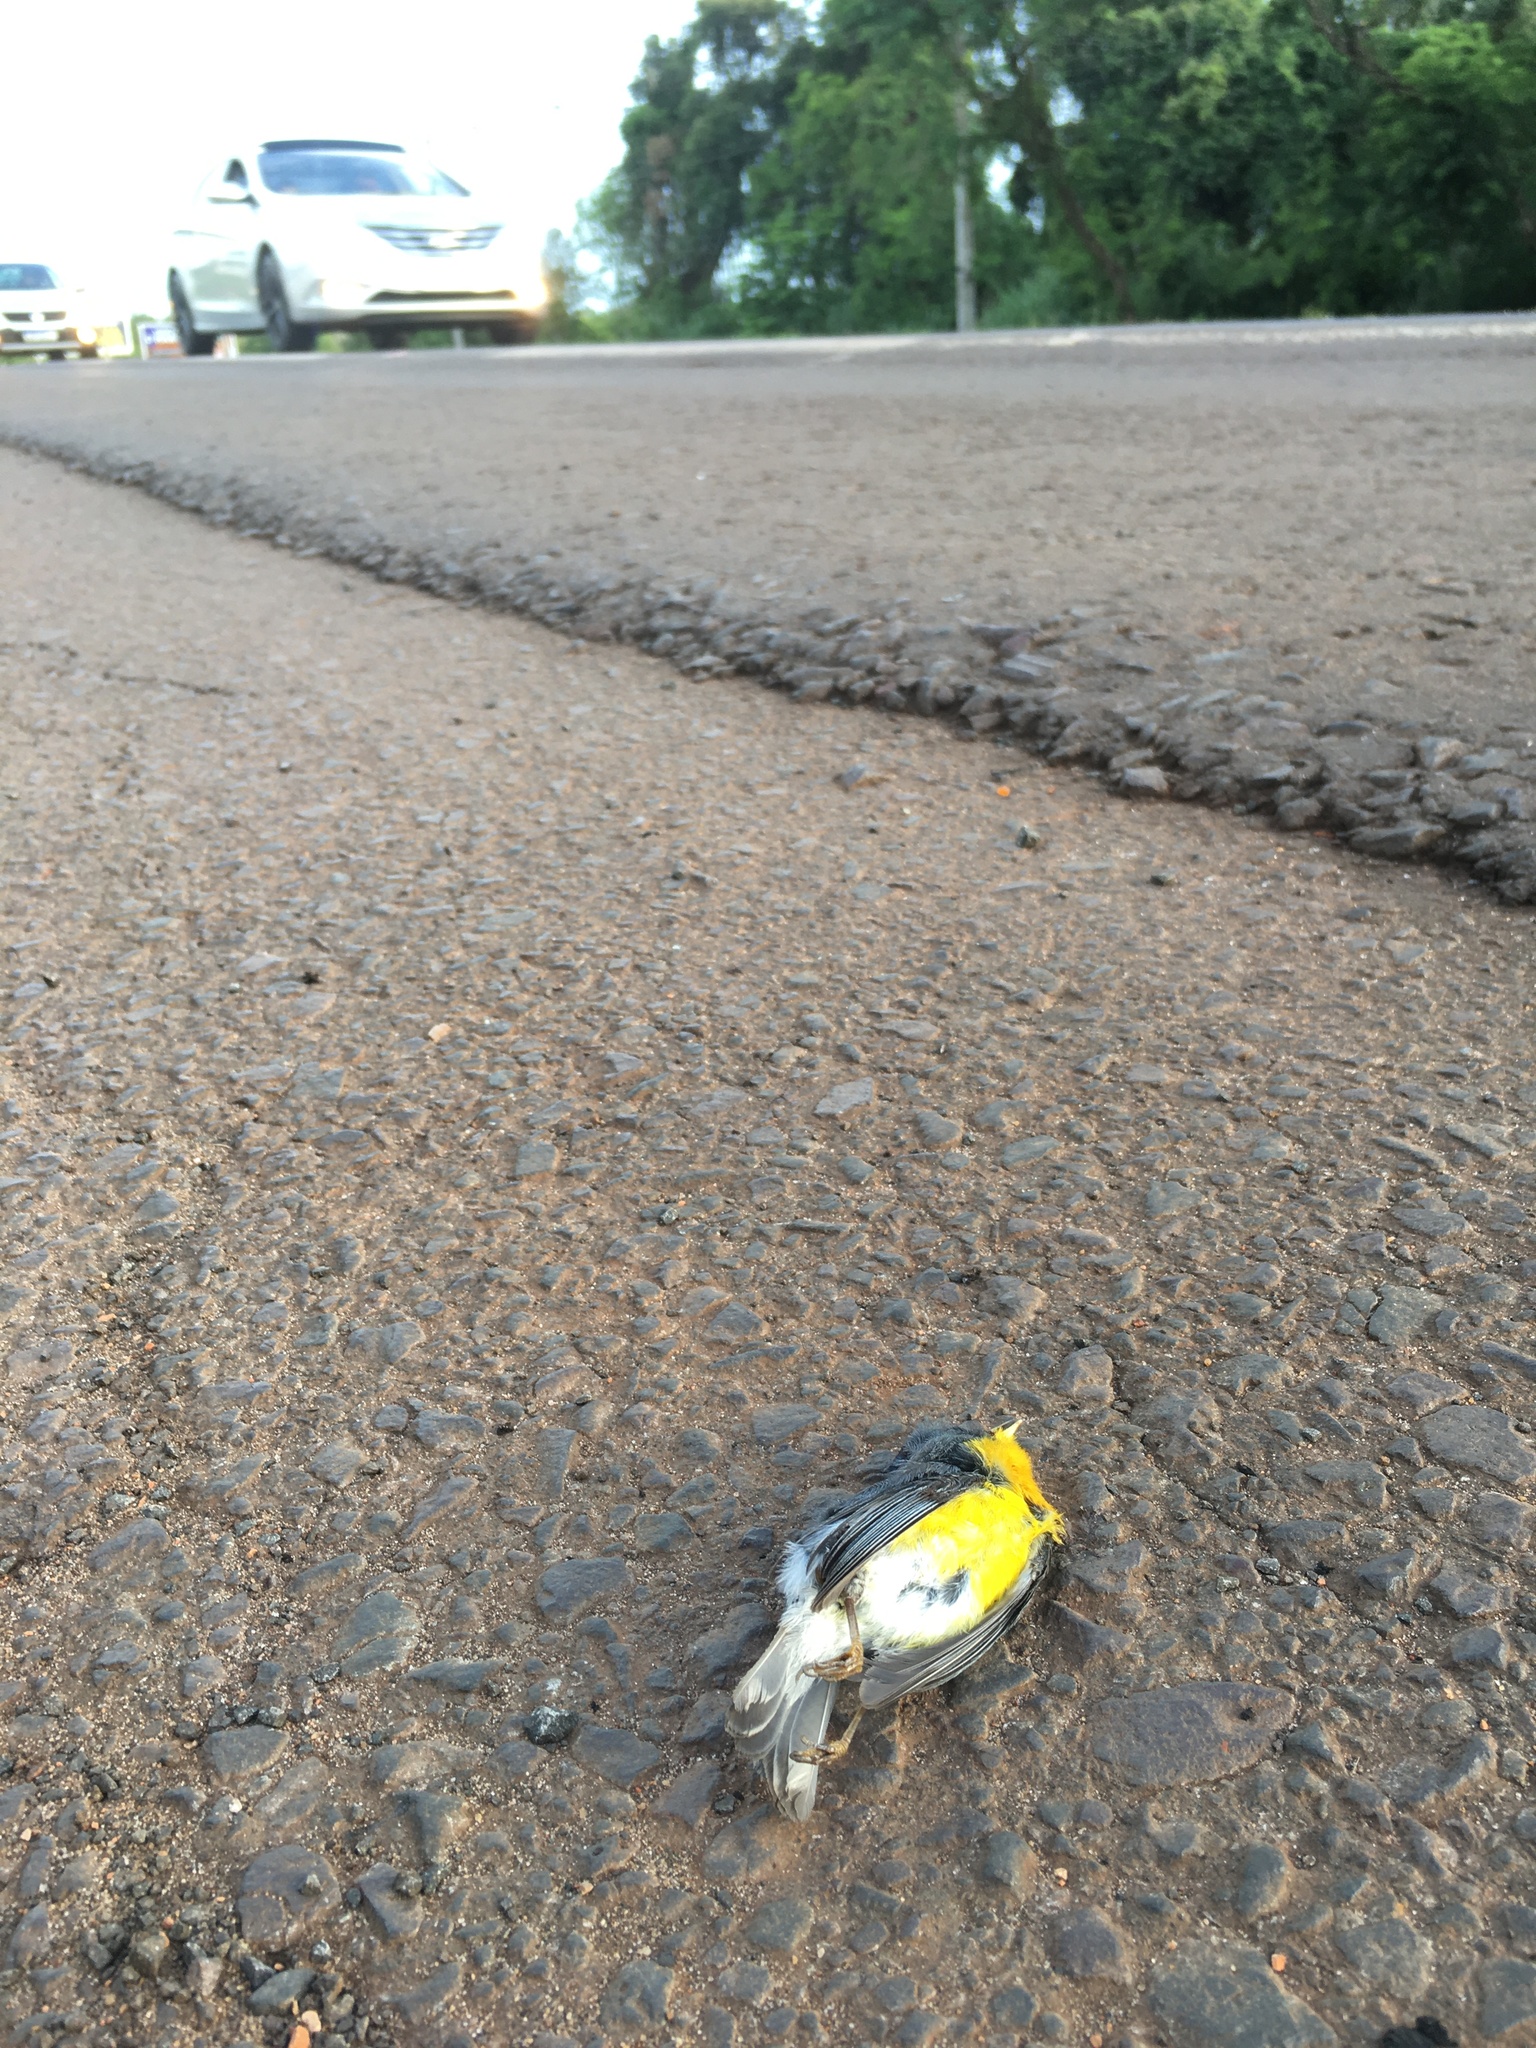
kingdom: Animalia
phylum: Chordata
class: Aves
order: Passeriformes
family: Parulidae
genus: Setophaga
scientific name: Setophaga pitiayumi
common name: Tropical parula
